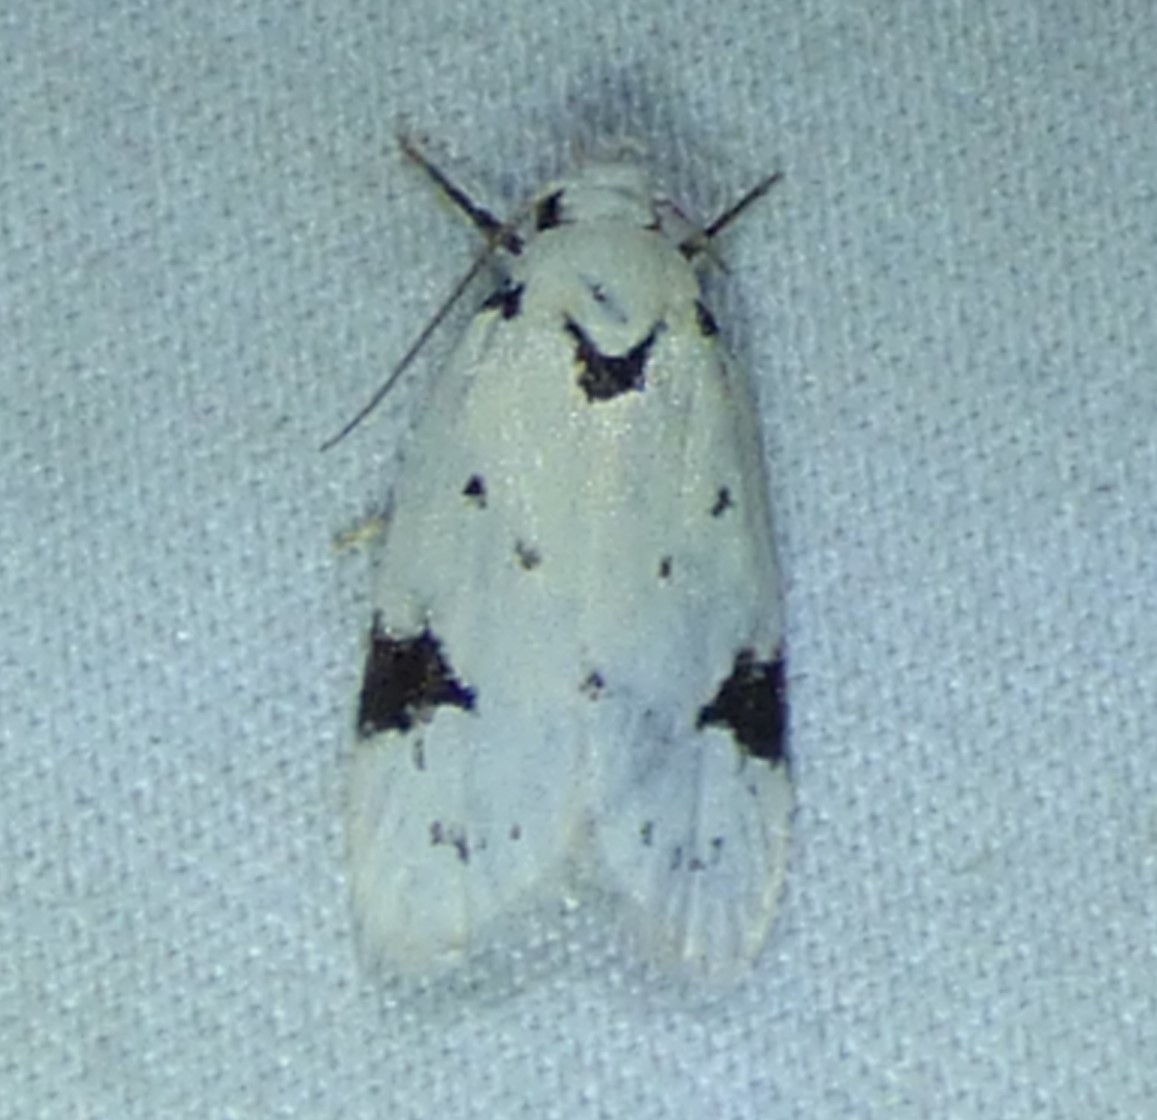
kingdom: Animalia
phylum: Arthropoda
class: Insecta
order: Lepidoptera
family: Oecophoridae
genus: Inga
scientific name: Inga sparsiciliella
